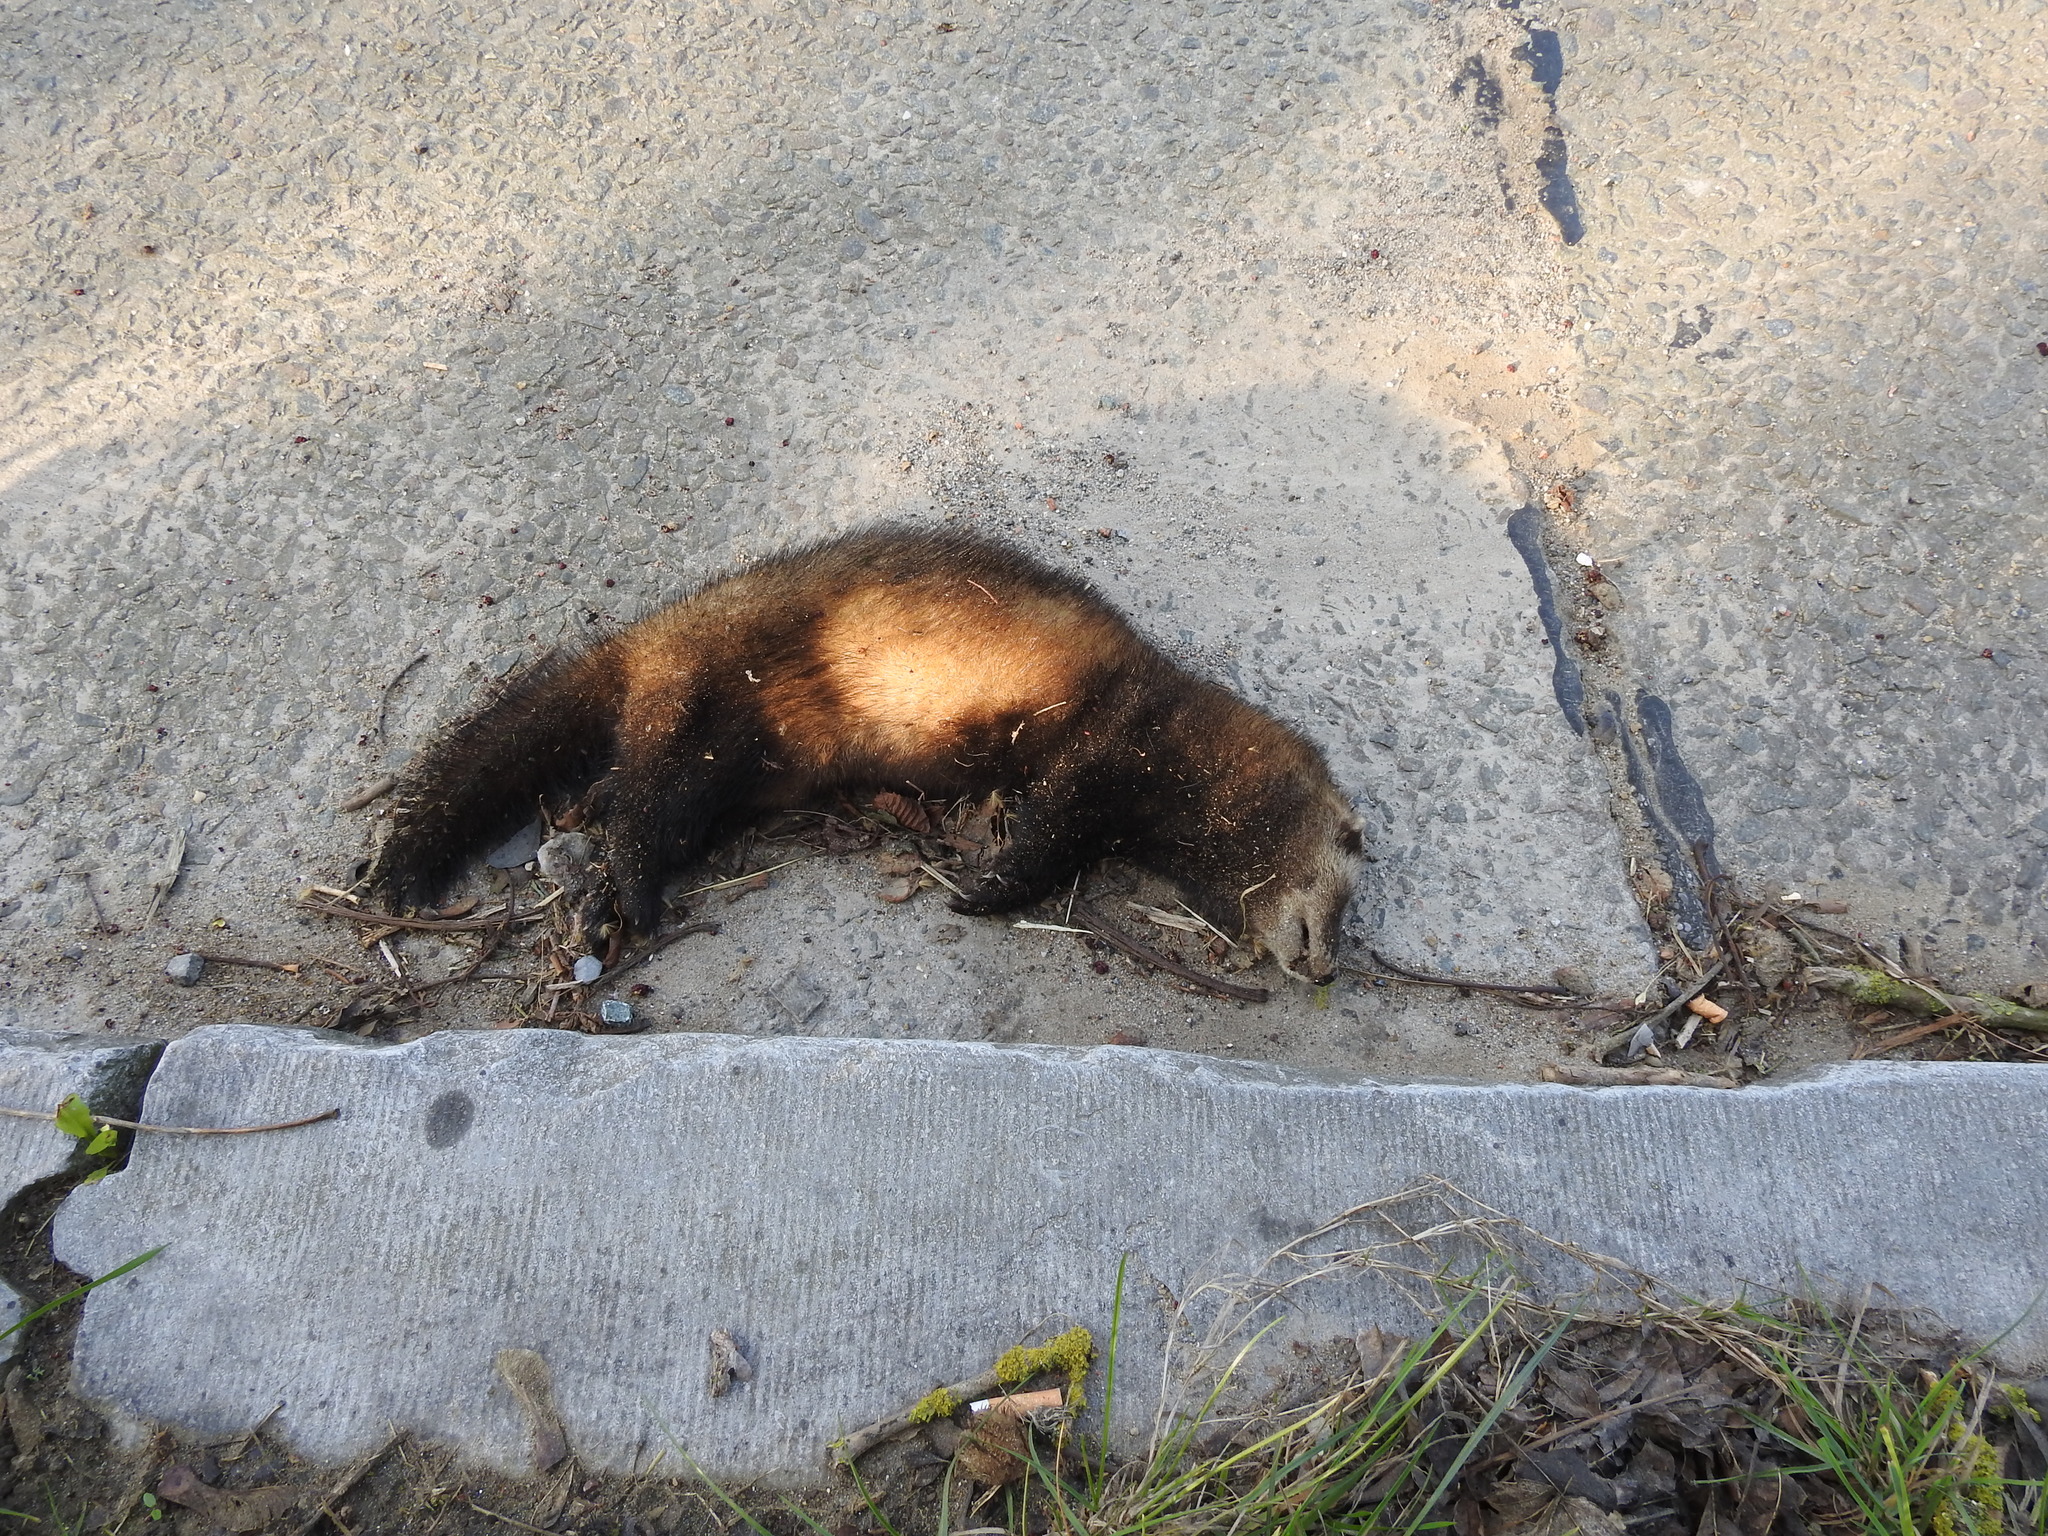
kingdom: Animalia
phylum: Chordata
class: Mammalia
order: Carnivora
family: Mustelidae
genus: Mustela
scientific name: Mustela putorius
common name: European polecat
